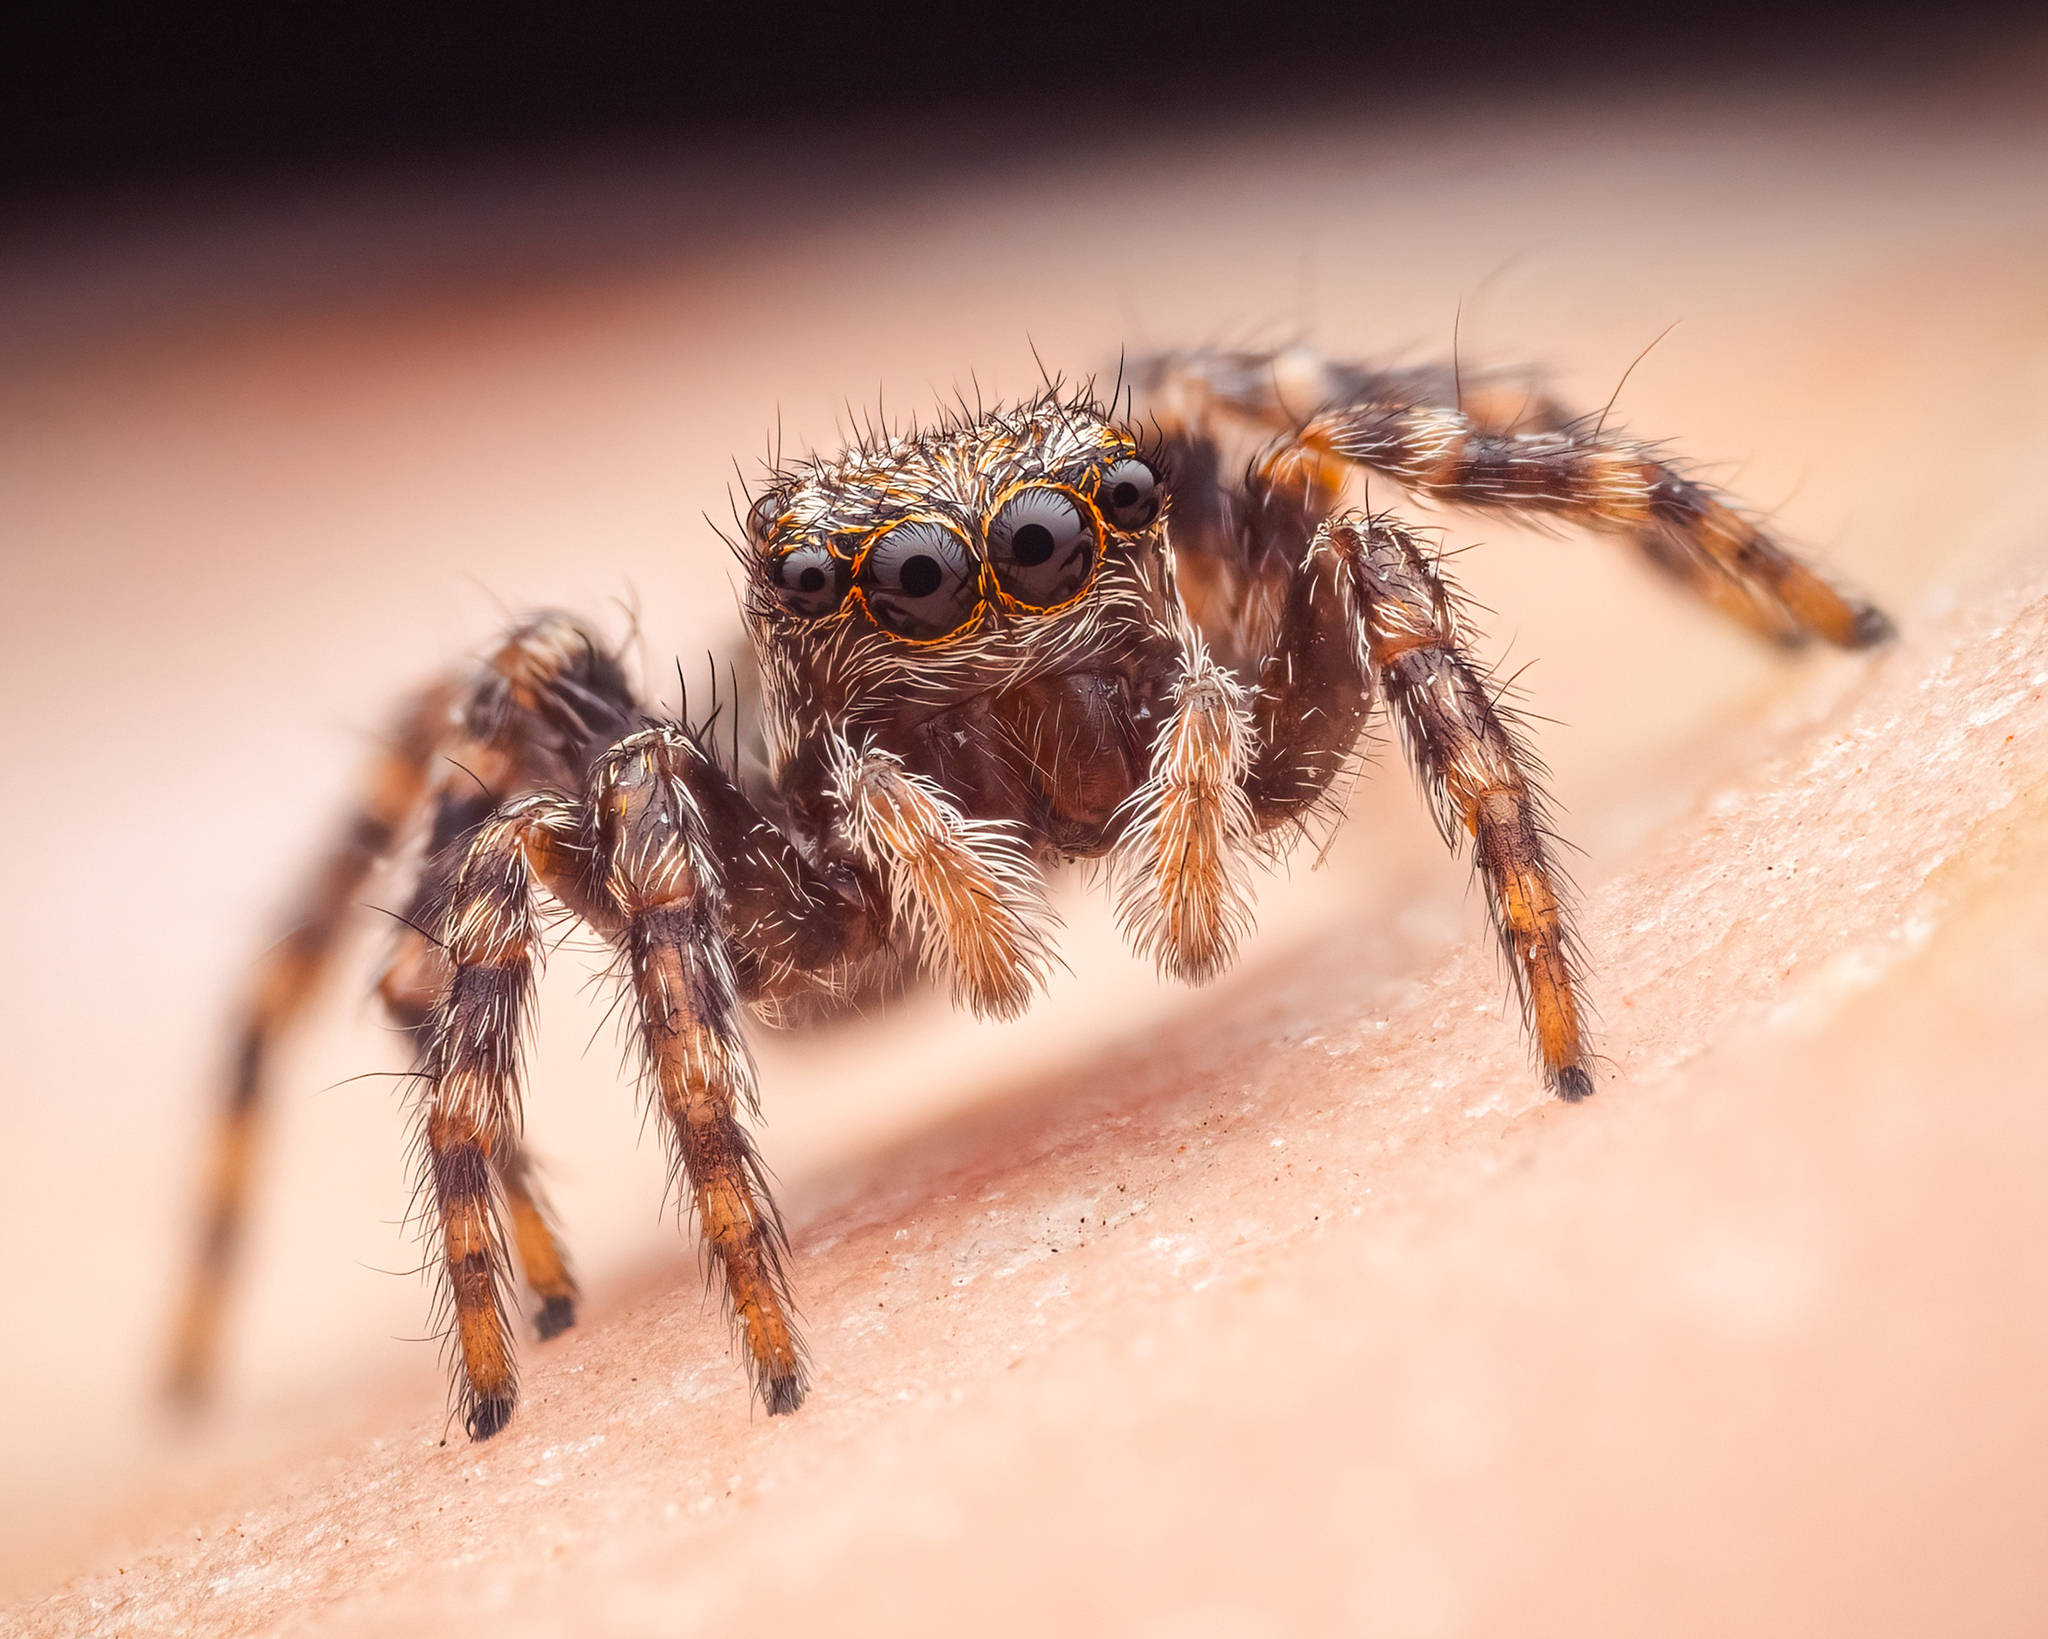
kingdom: Animalia
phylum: Arthropoda
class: Arachnida
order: Araneae
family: Salticidae
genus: Pseudeuophrys
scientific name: Pseudeuophrys lanigera
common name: Jumping spider
